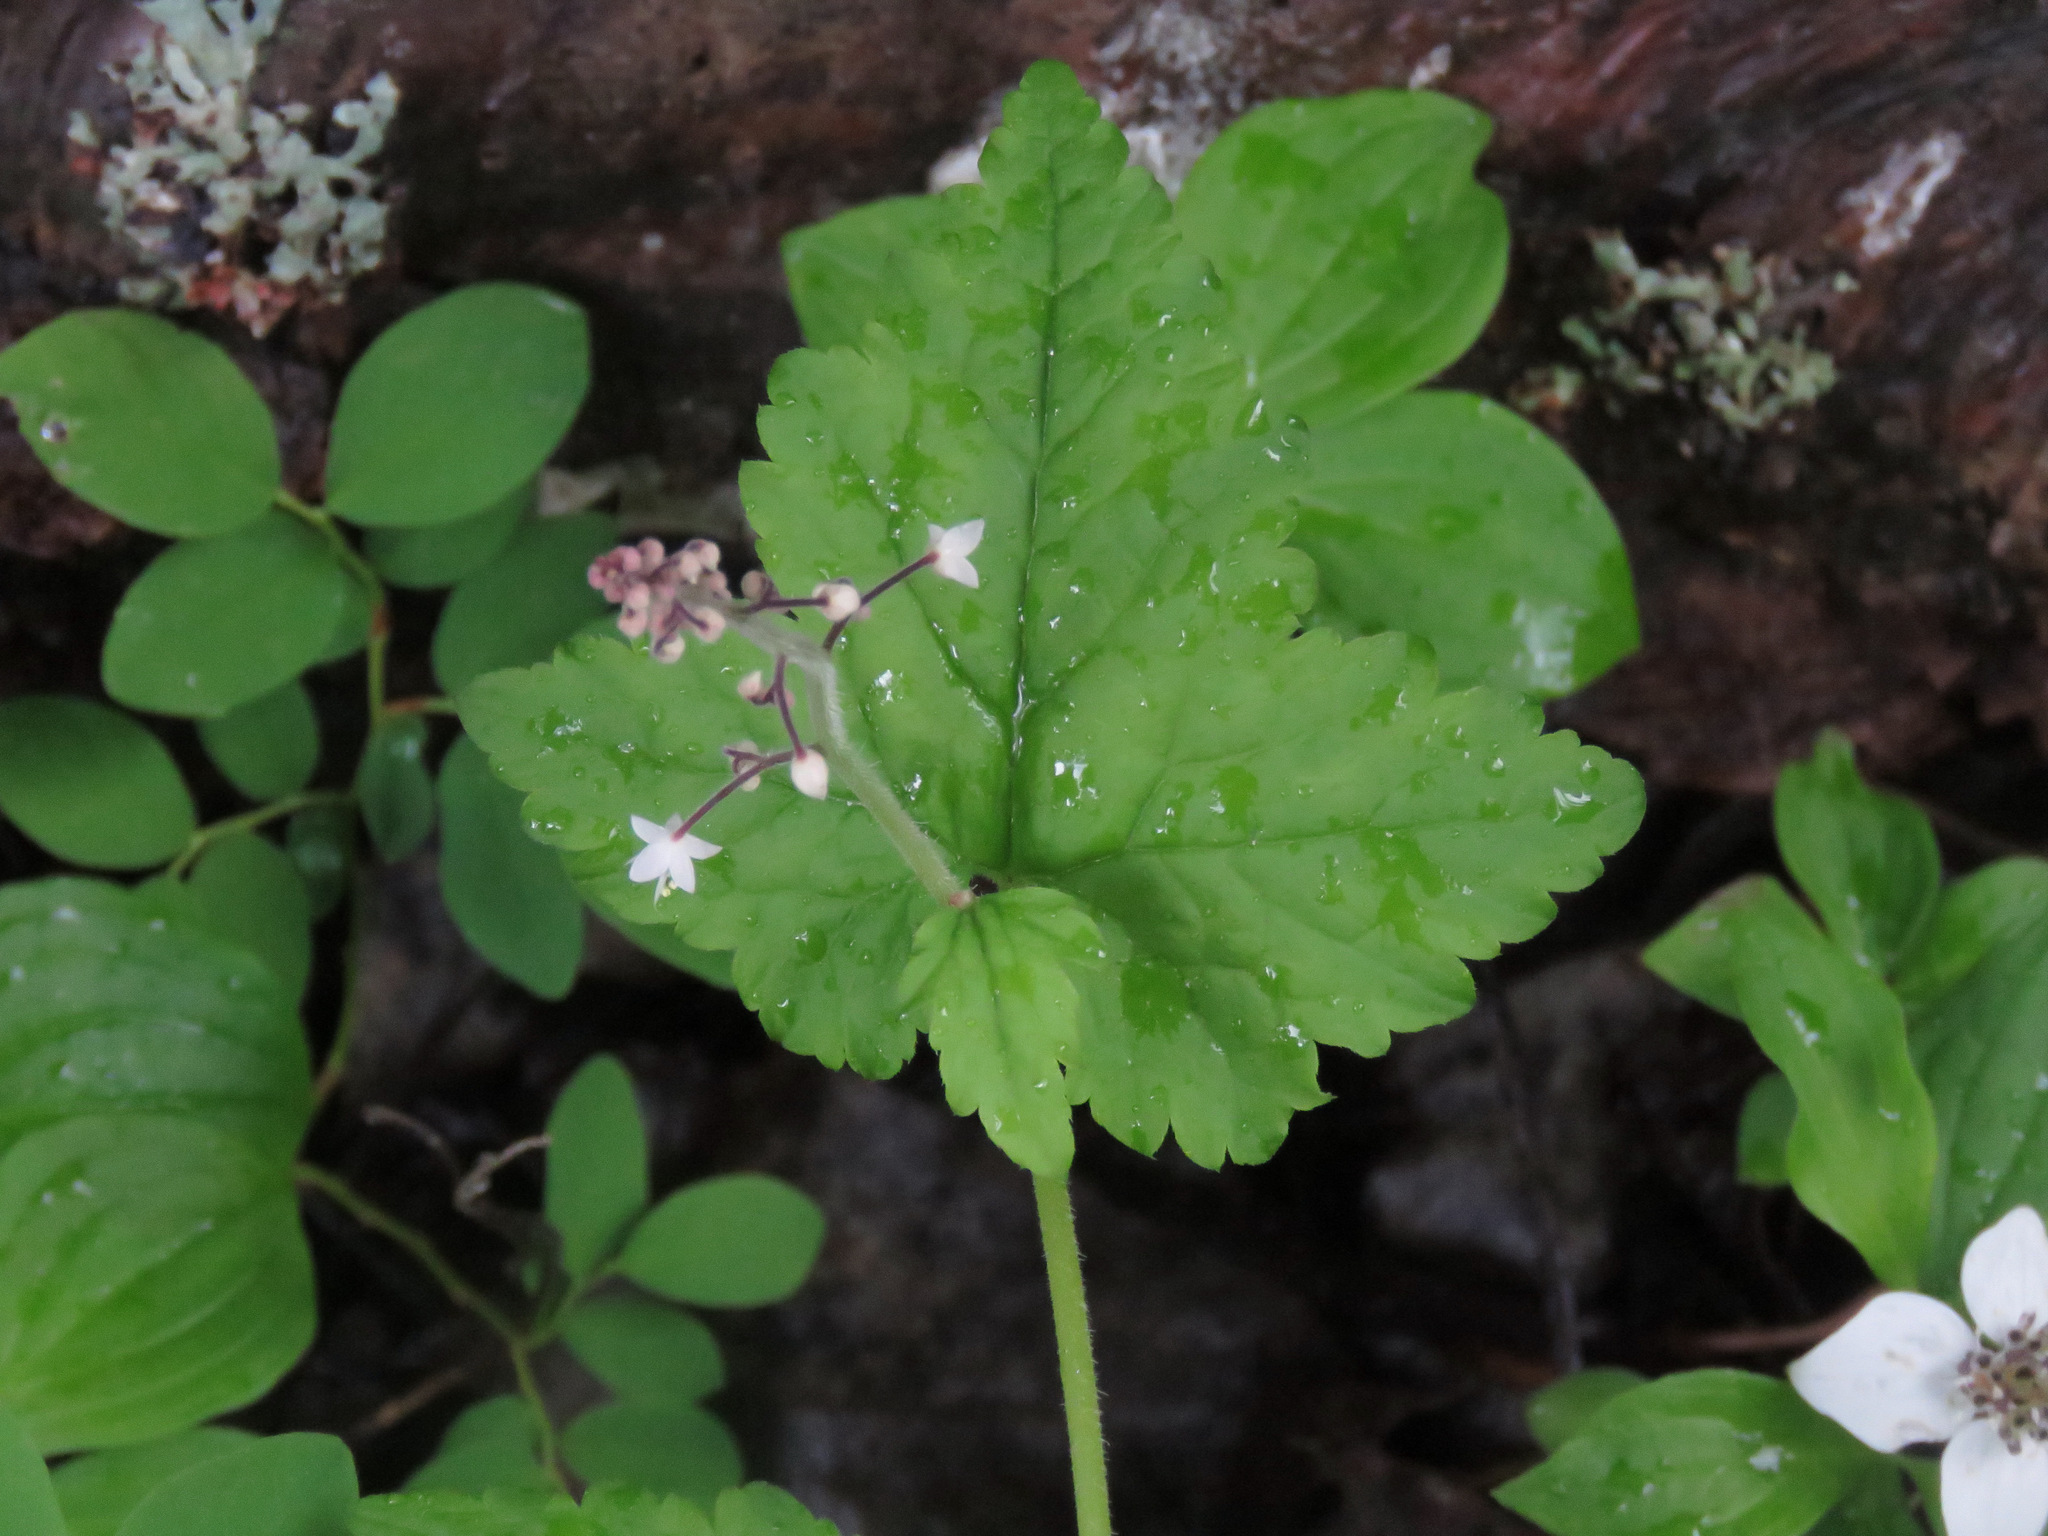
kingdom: Plantae
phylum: Tracheophyta
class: Magnoliopsida
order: Saxifragales
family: Saxifragaceae
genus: Tiarella
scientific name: Tiarella trifoliata
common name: Sugar-scoop
